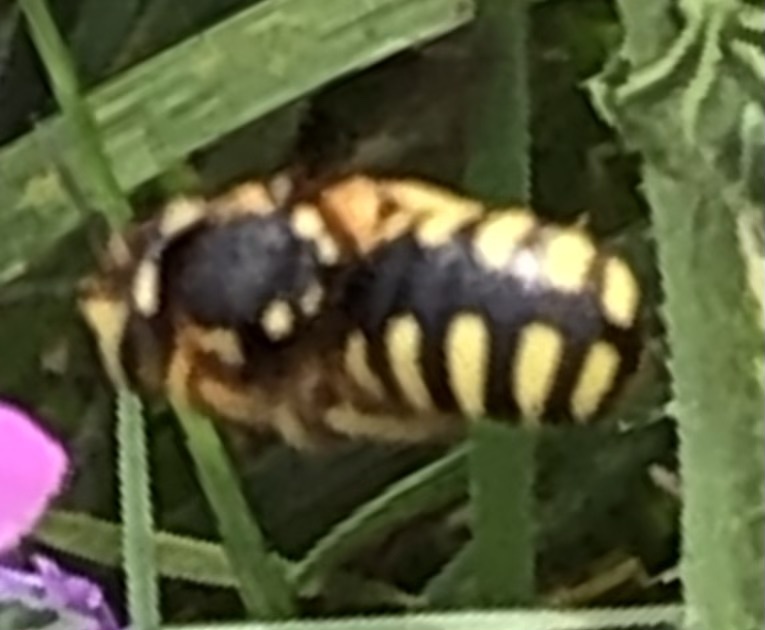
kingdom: Animalia
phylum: Arthropoda
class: Insecta
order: Hymenoptera
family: Megachilidae
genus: Anthidium
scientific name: Anthidium florentinum
